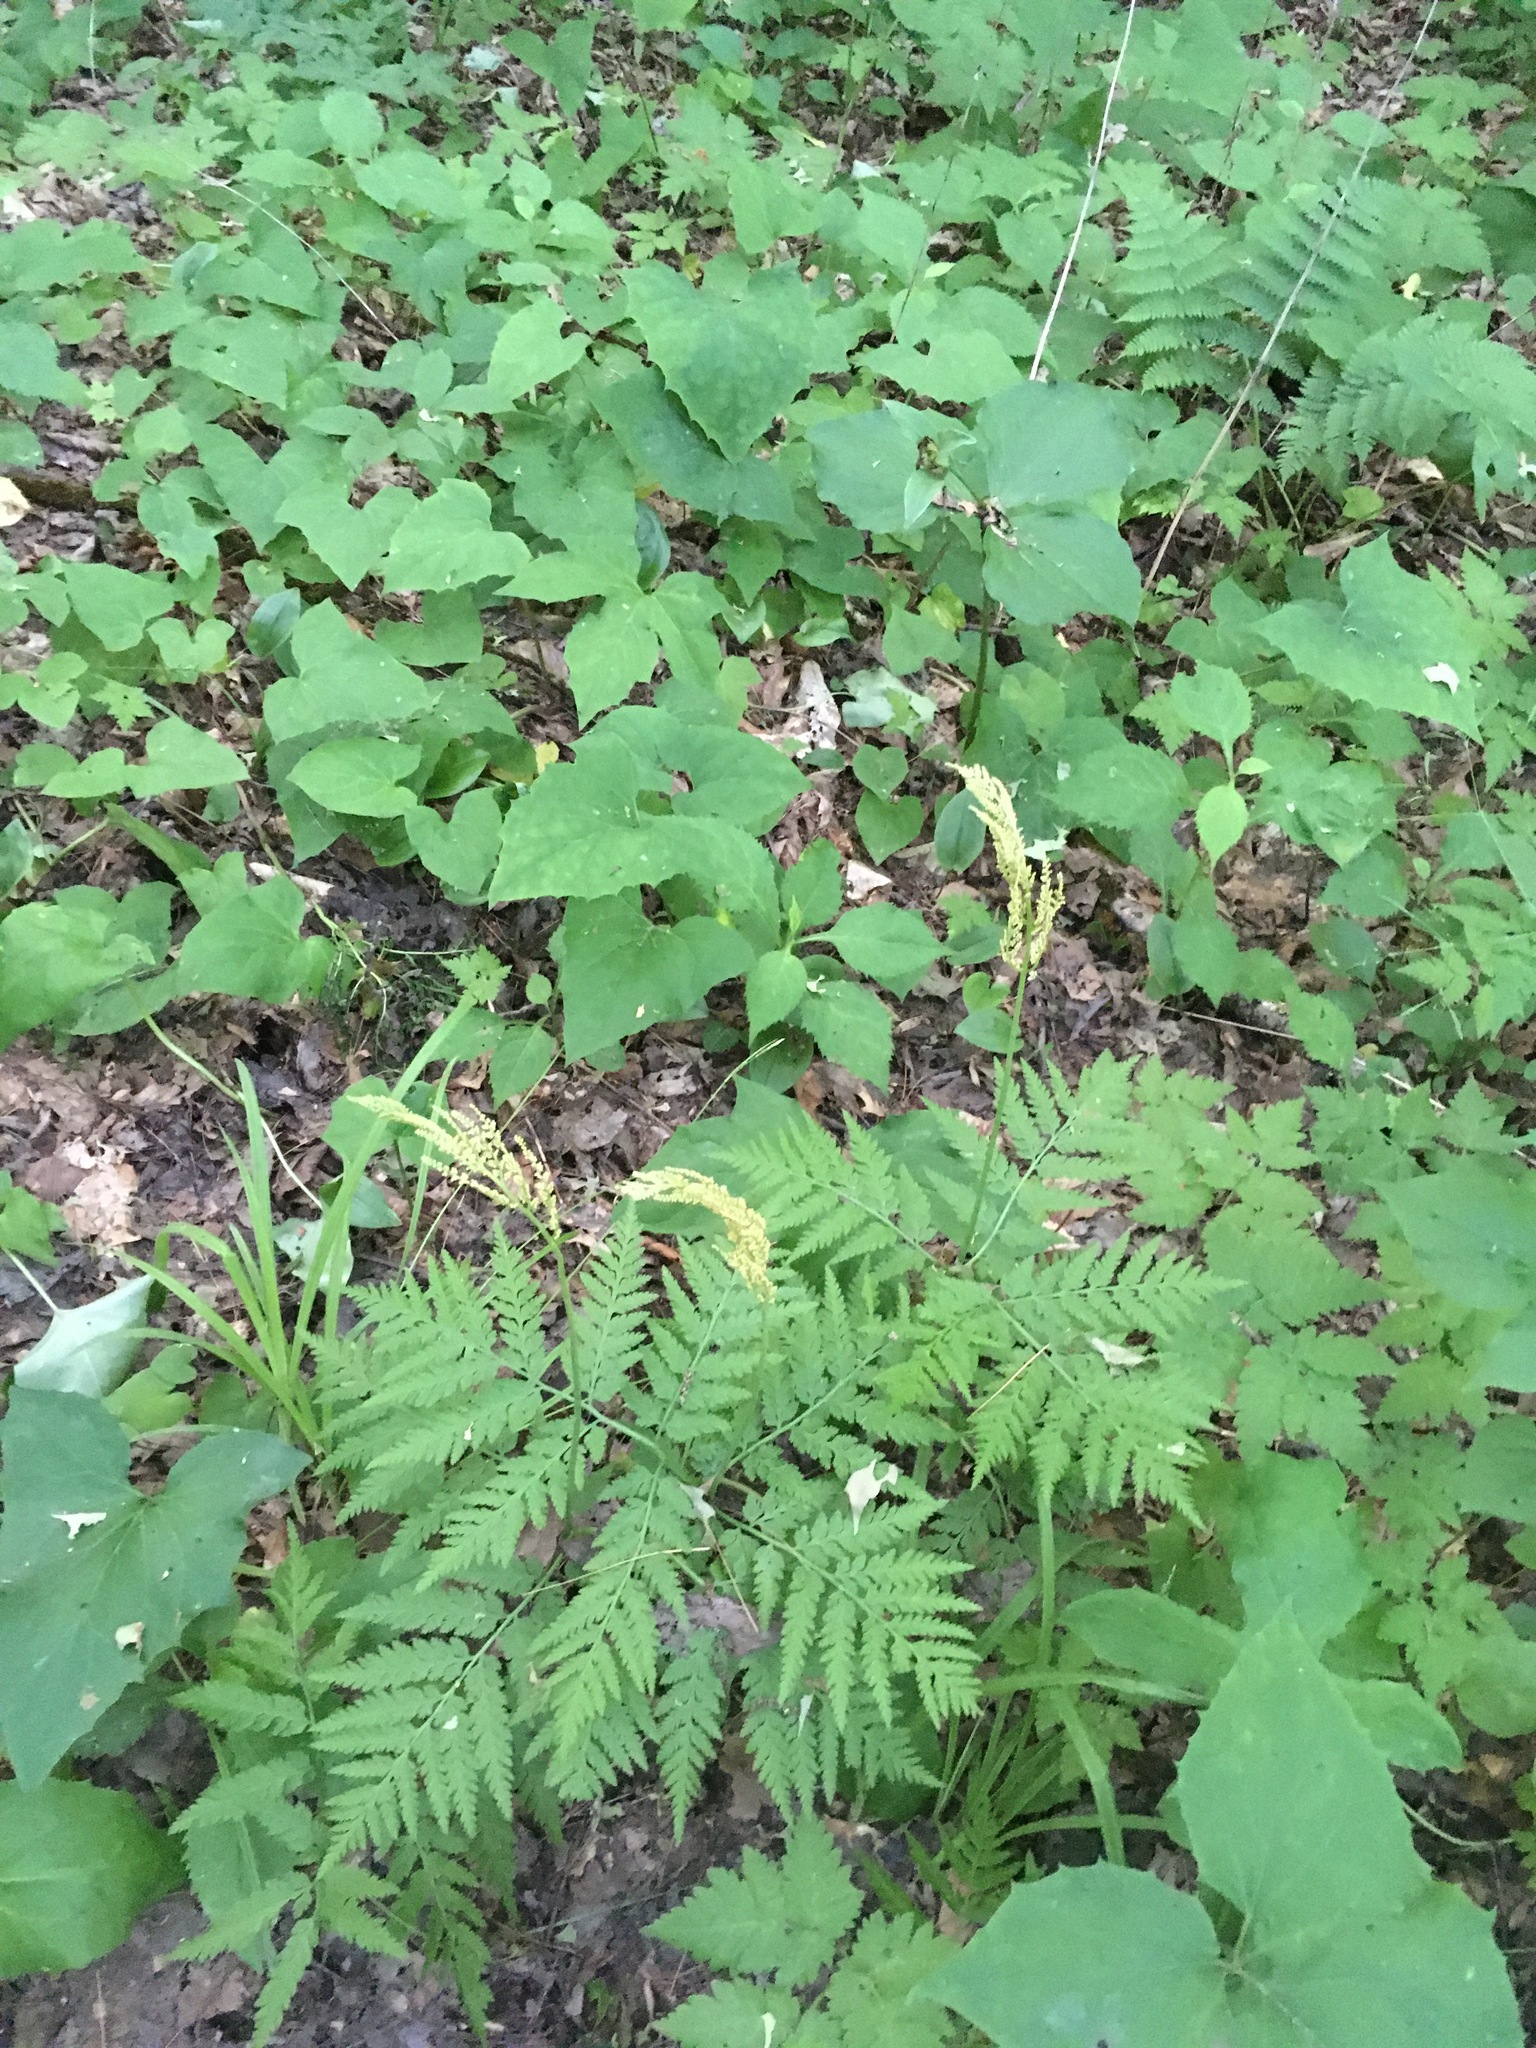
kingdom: Plantae
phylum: Tracheophyta
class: Polypodiopsida
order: Ophioglossales
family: Ophioglossaceae
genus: Botrypus
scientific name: Botrypus virginianus
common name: Common grapefern
